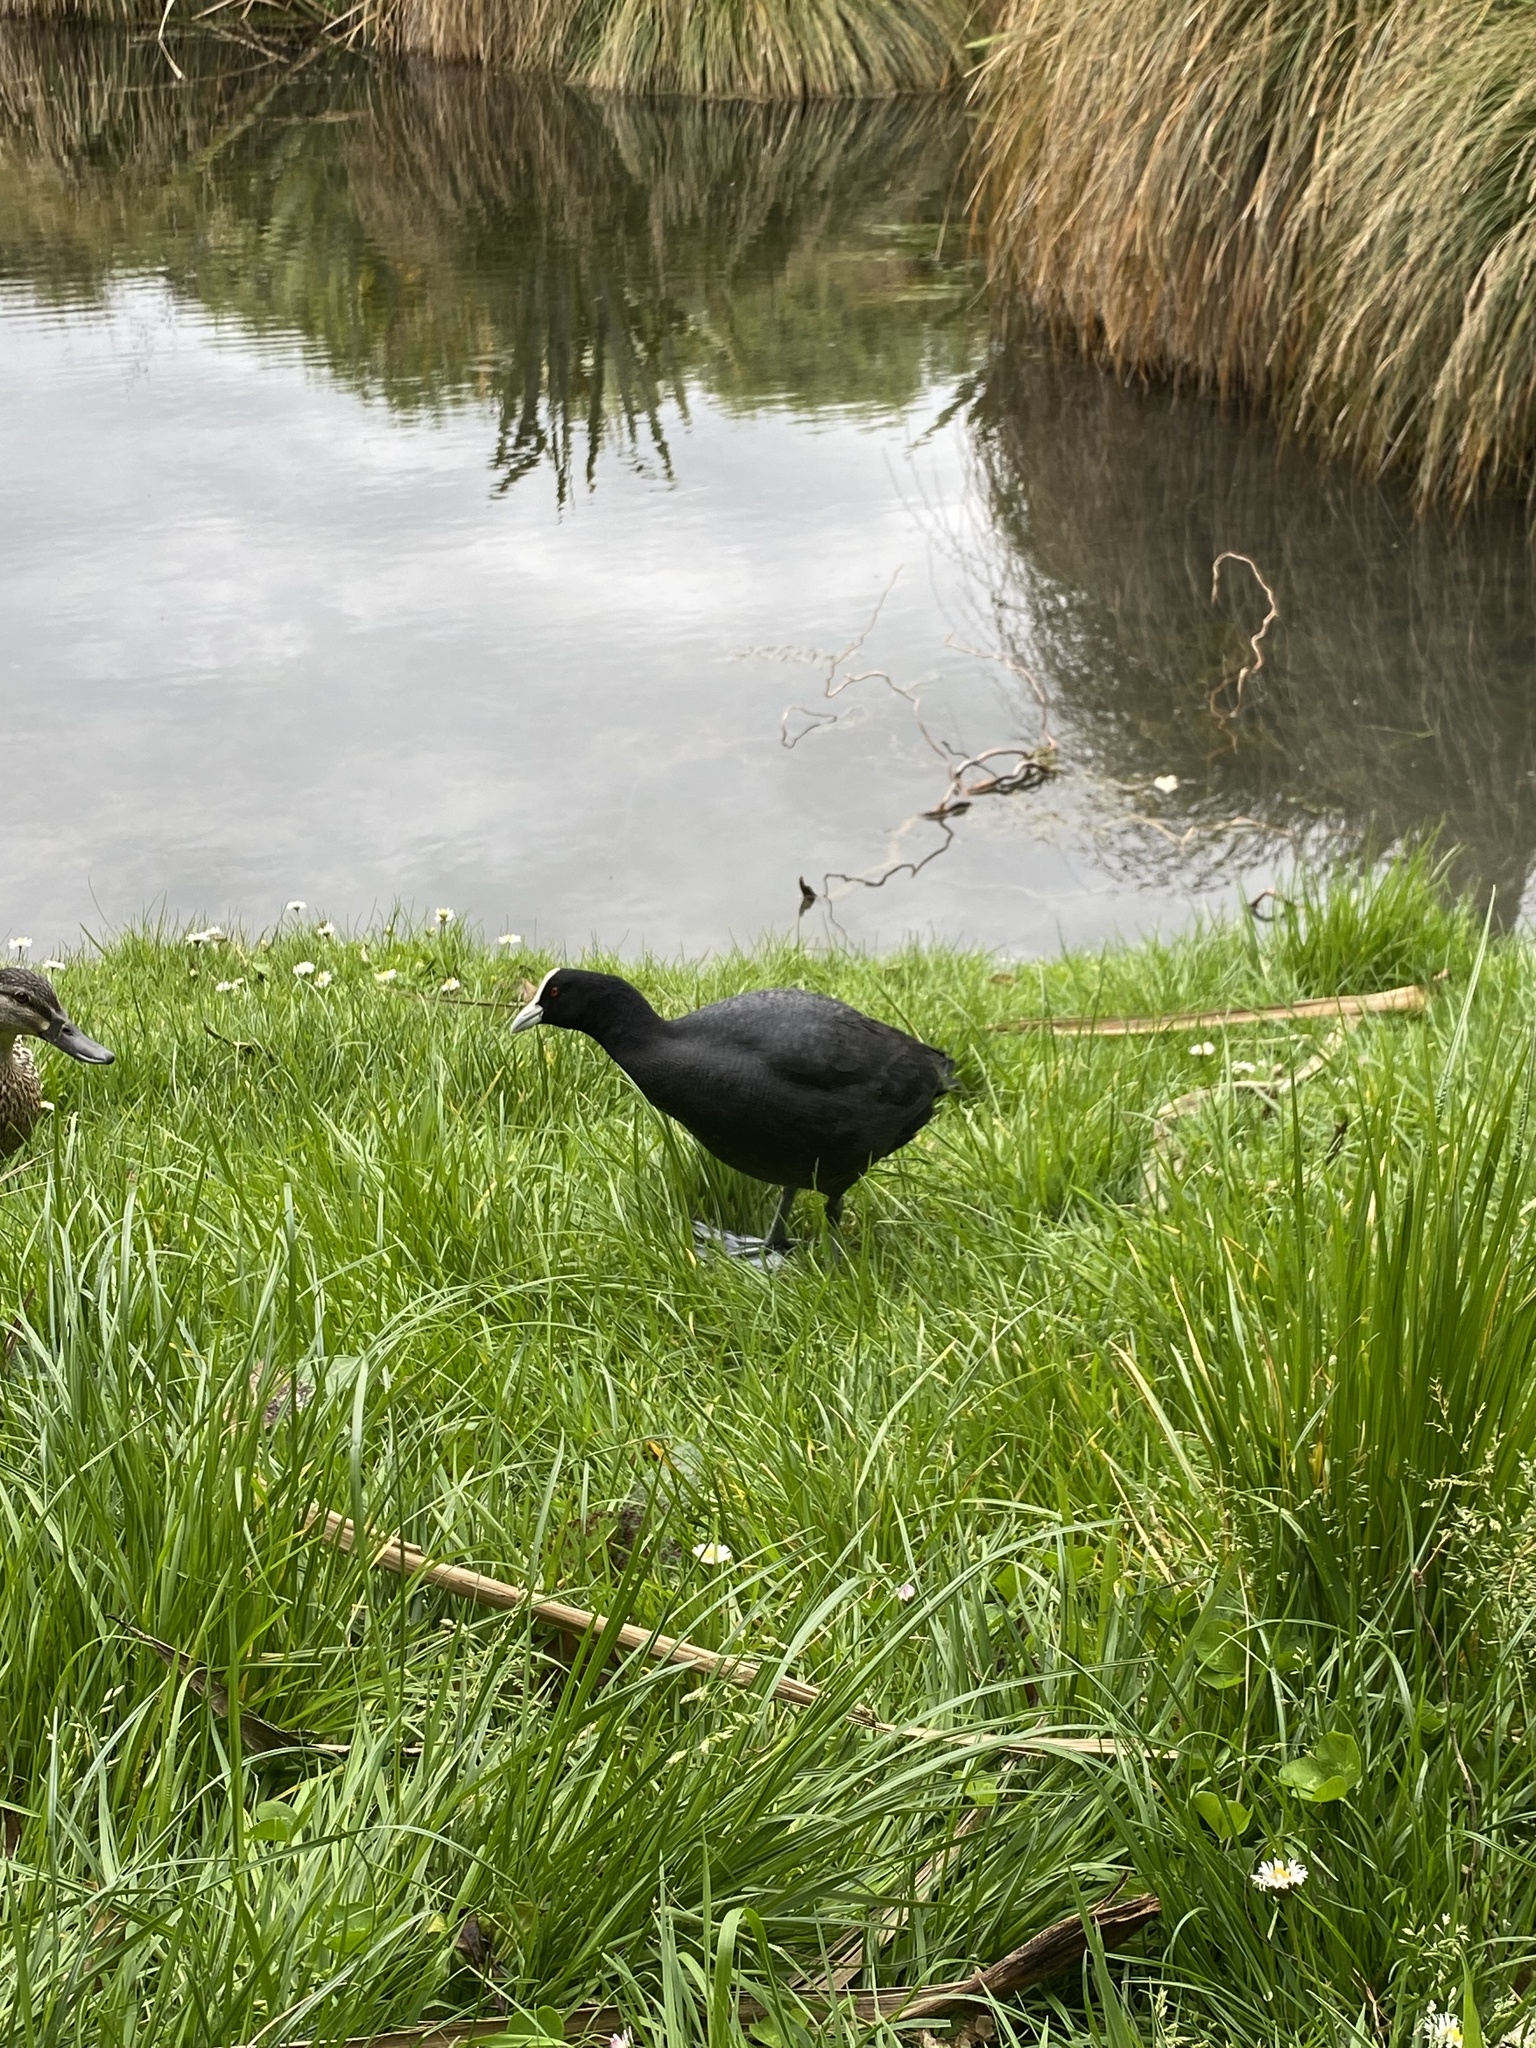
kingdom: Animalia
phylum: Chordata
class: Aves
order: Gruiformes
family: Rallidae
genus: Fulica
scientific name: Fulica atra
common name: Eurasian coot
